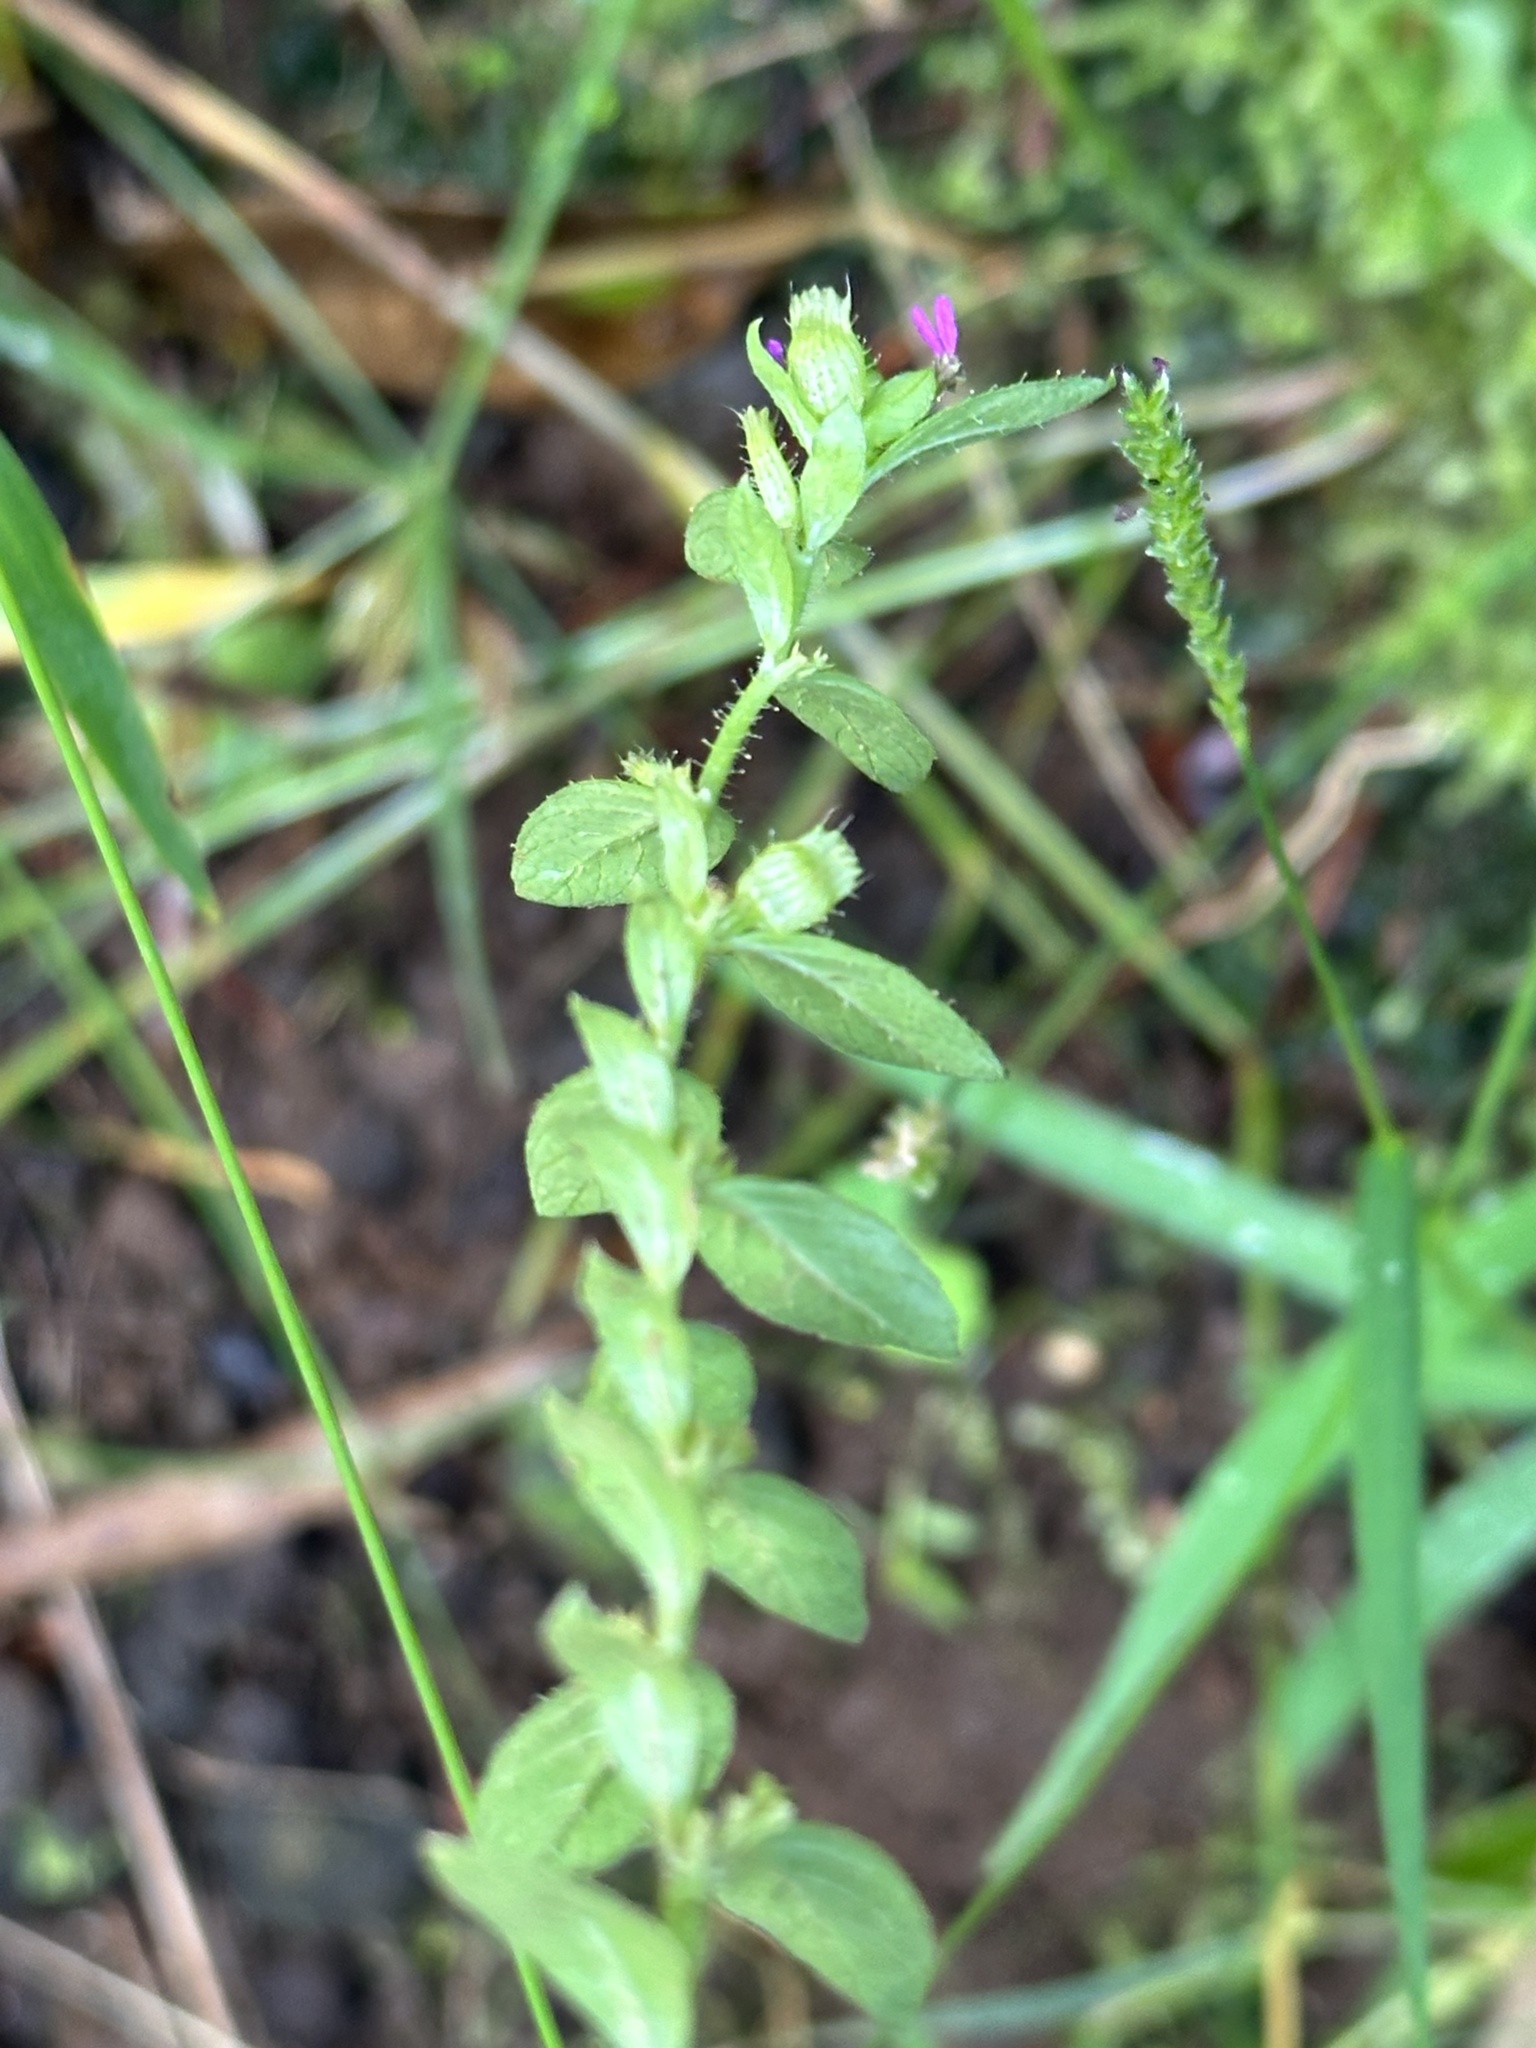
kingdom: Plantae
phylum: Tracheophyta
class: Magnoliopsida
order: Myrtales
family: Lythraceae
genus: Cuphea
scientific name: Cuphea carthagenensis
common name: Colombian waxweed
